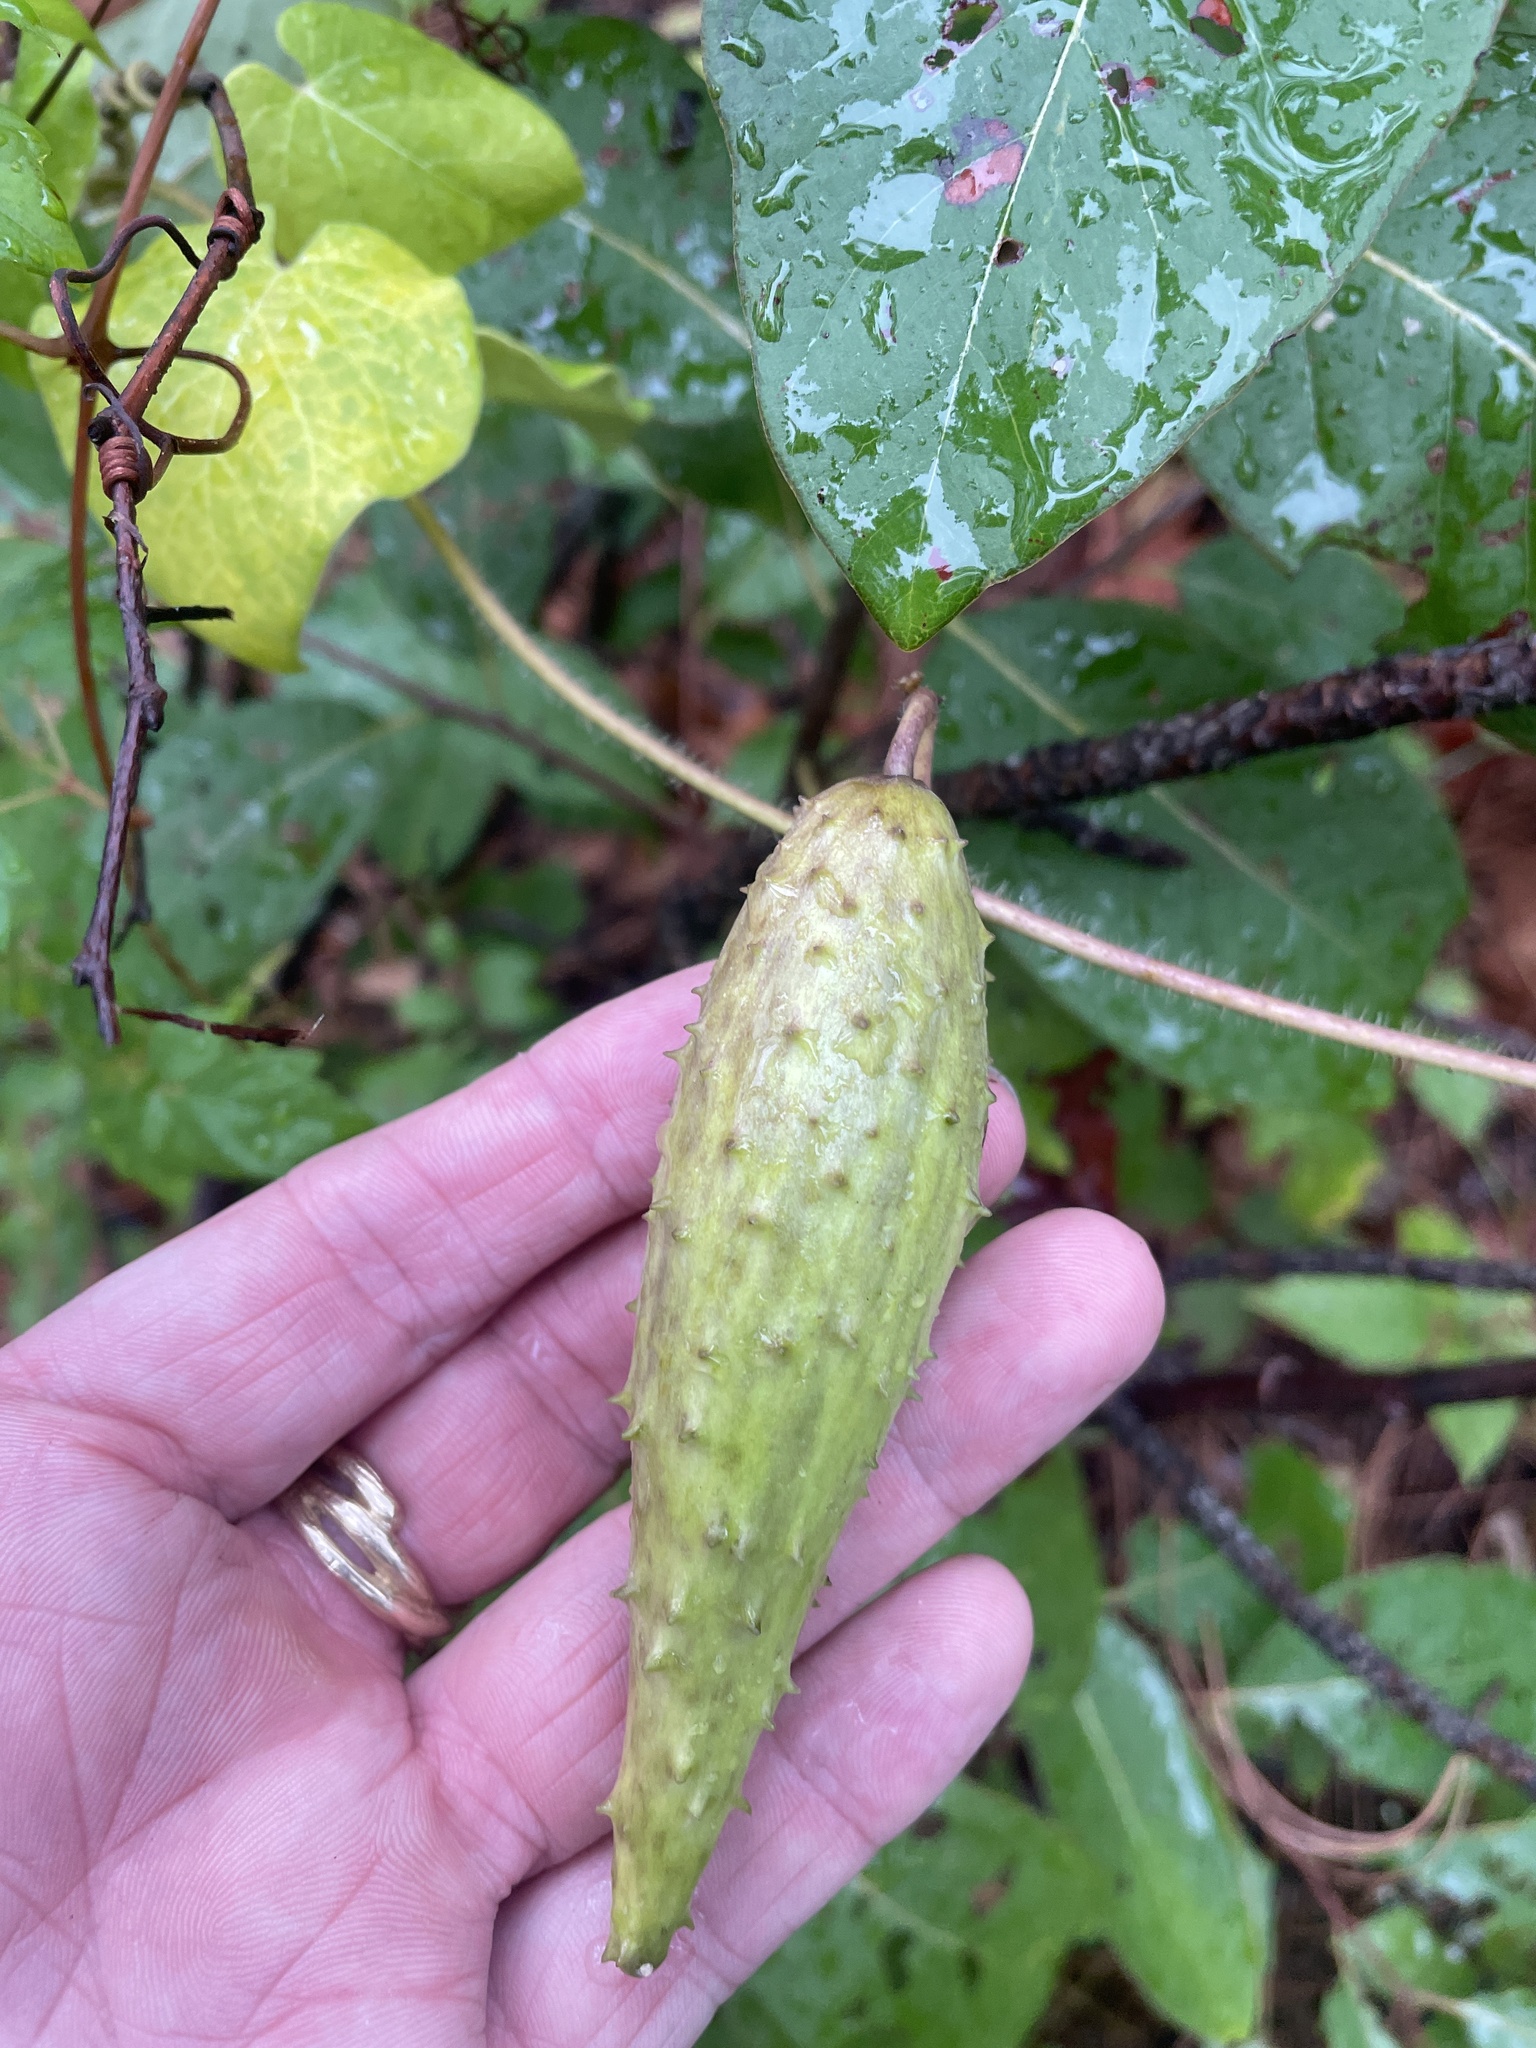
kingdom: Plantae
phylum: Tracheophyta
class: Magnoliopsida
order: Gentianales
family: Apocynaceae
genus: Matelea
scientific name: Matelea hirtelliflora
